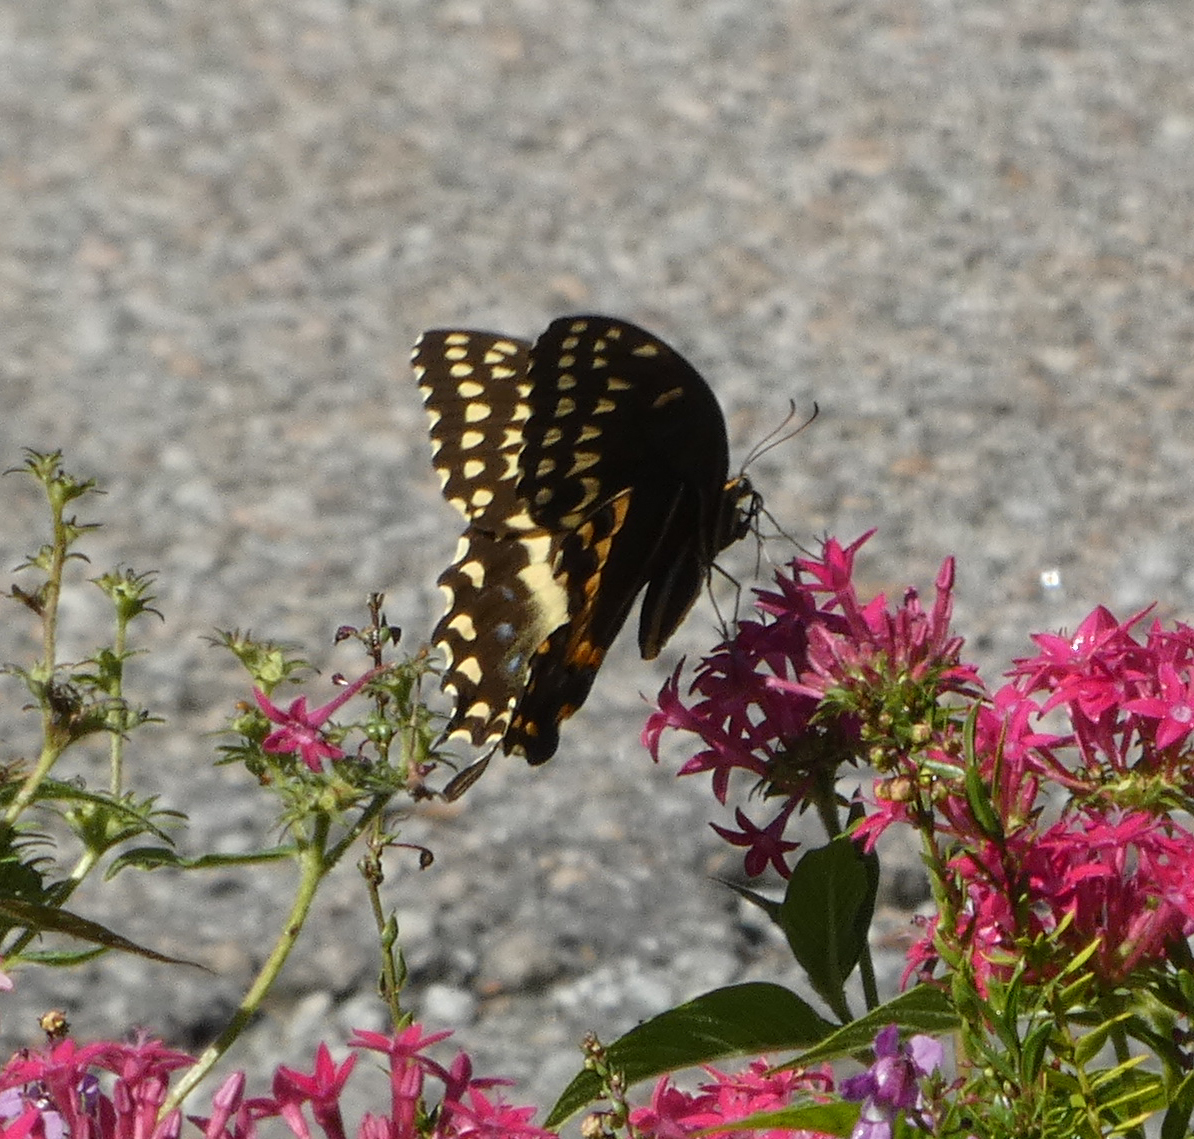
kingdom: Animalia
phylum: Arthropoda
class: Insecta
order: Lepidoptera
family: Papilionidae
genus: Papilio
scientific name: Papilio palamedes
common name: Palamedes swallowtail
